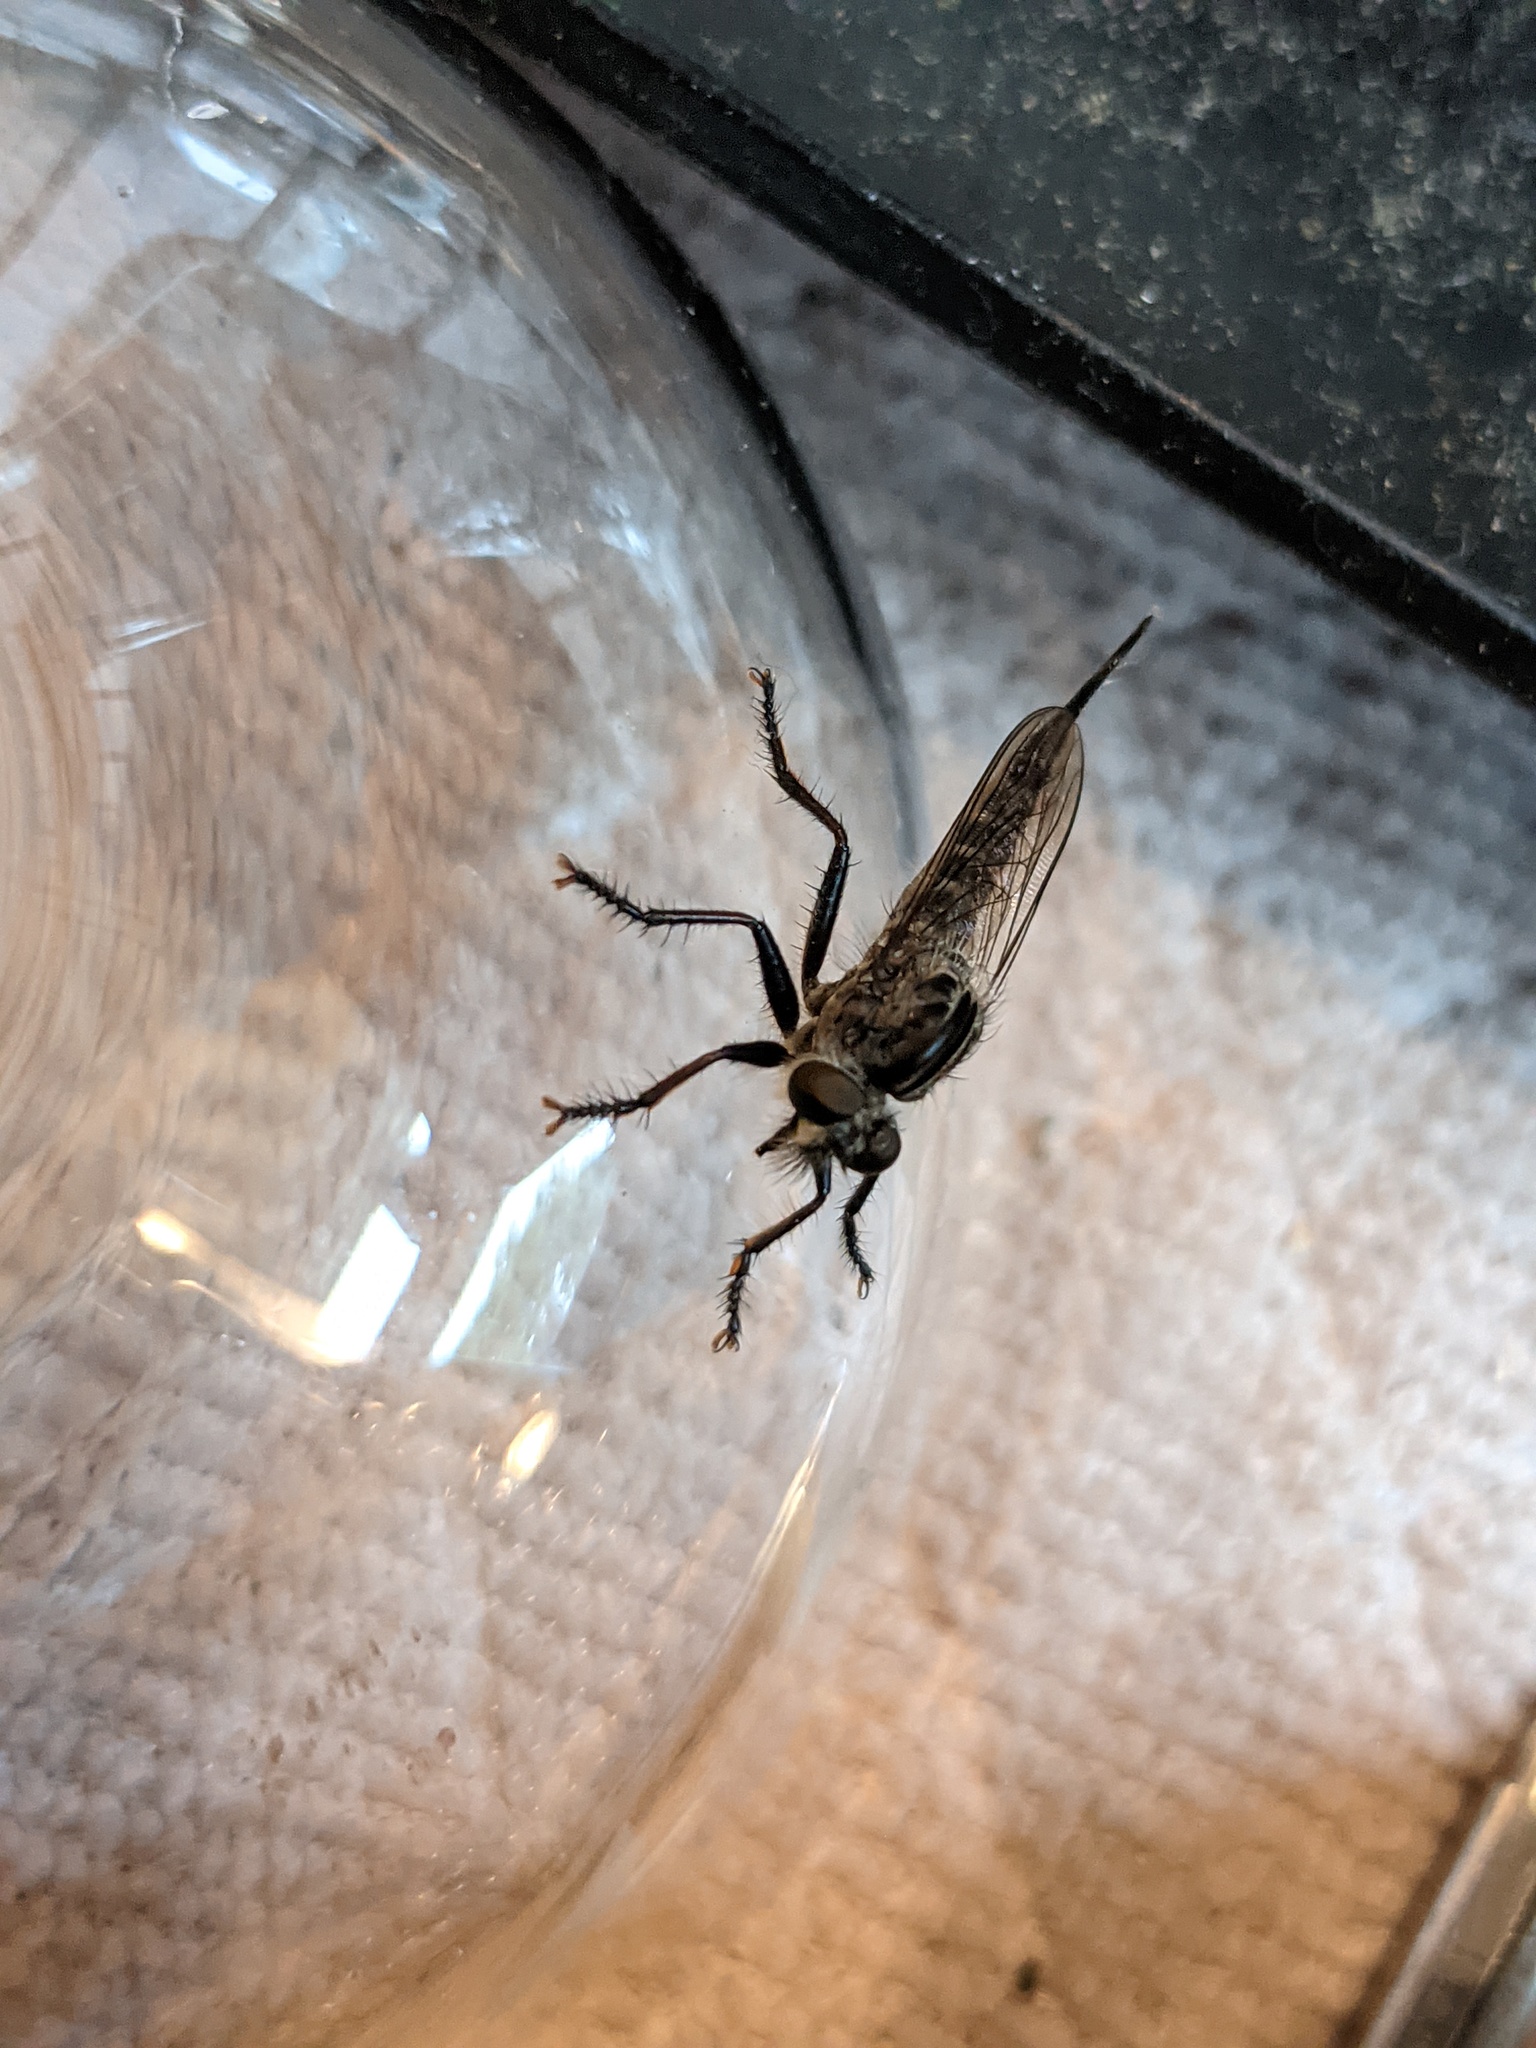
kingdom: Animalia
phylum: Arthropoda
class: Insecta
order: Diptera
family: Asilidae
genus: Efferia
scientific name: Efferia aestuans
